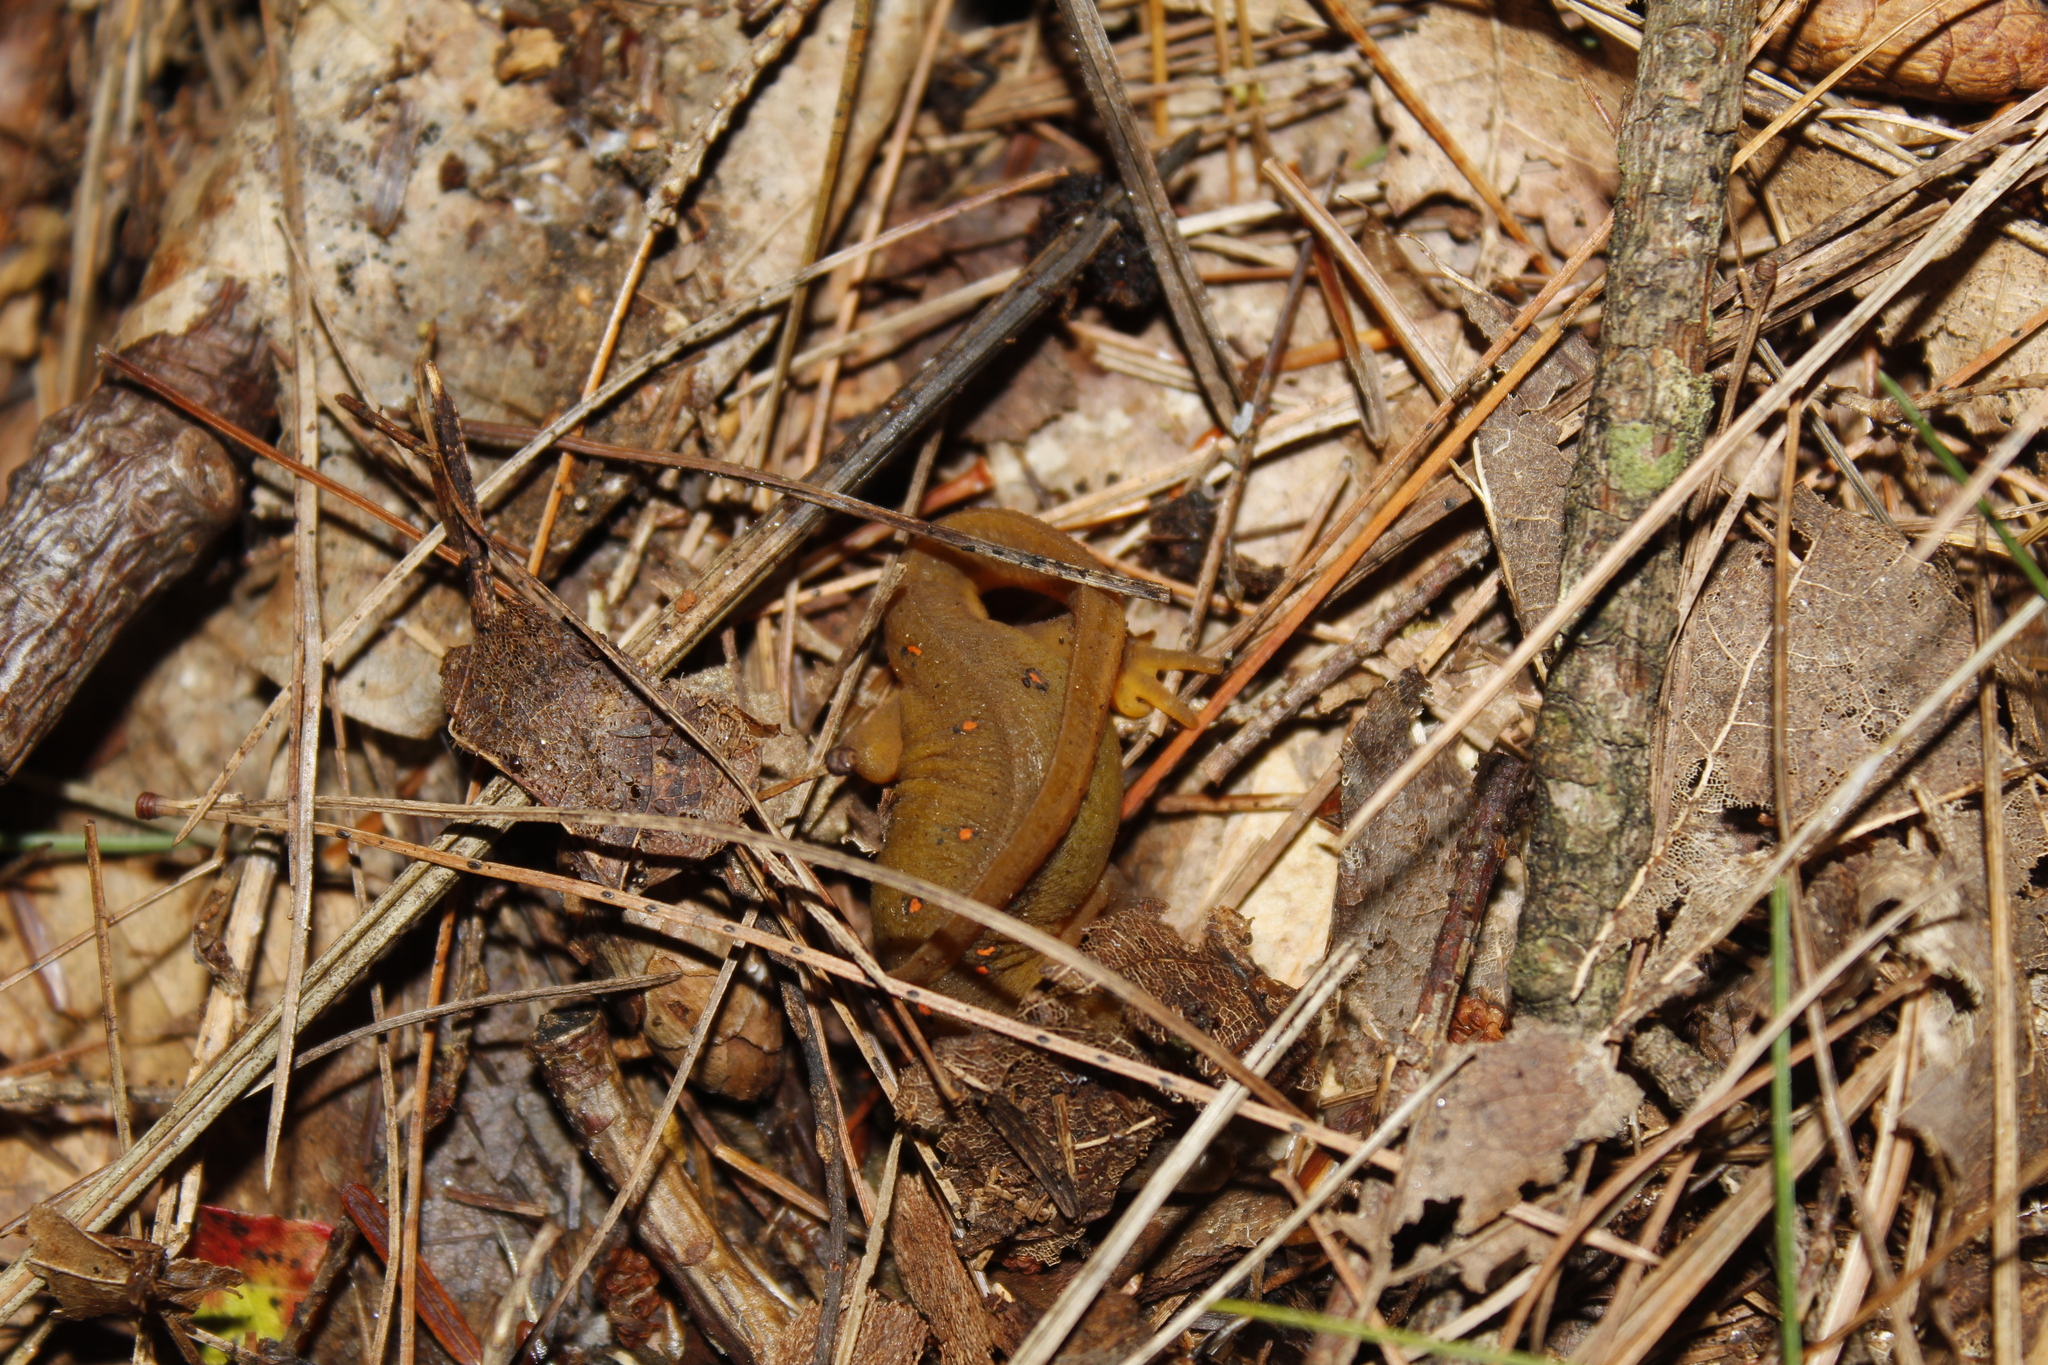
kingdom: Animalia
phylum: Chordata
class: Amphibia
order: Caudata
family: Salamandridae
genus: Notophthalmus
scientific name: Notophthalmus viridescens
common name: Eastern newt
